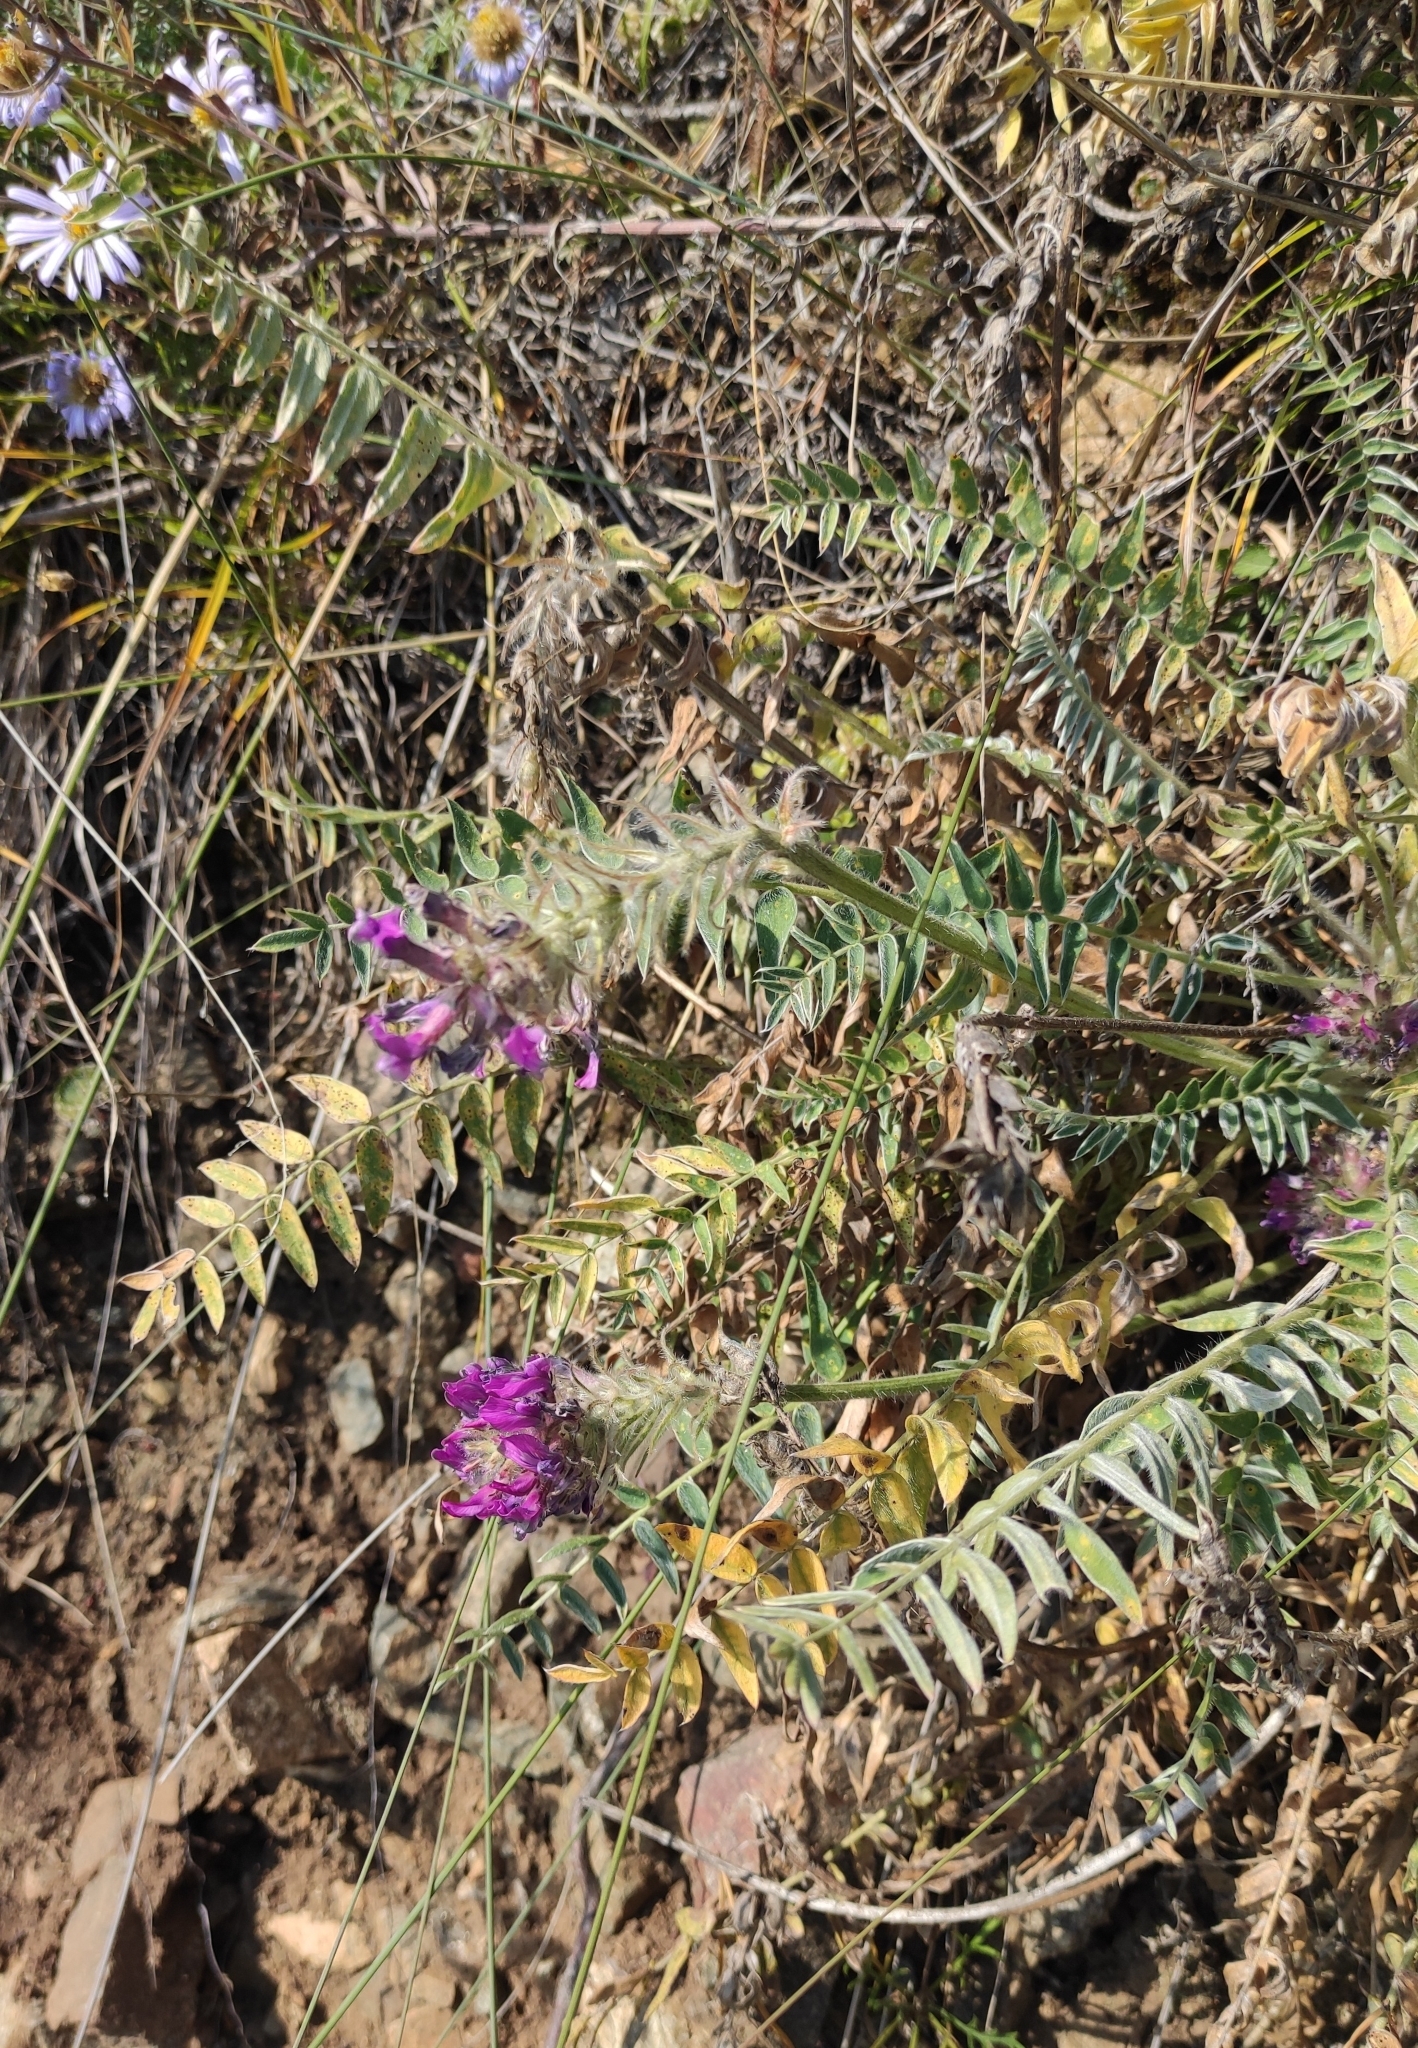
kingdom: Plantae
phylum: Tracheophyta
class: Magnoliopsida
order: Fabales
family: Fabaceae
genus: Oxytropis
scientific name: Oxytropis strobilacea
